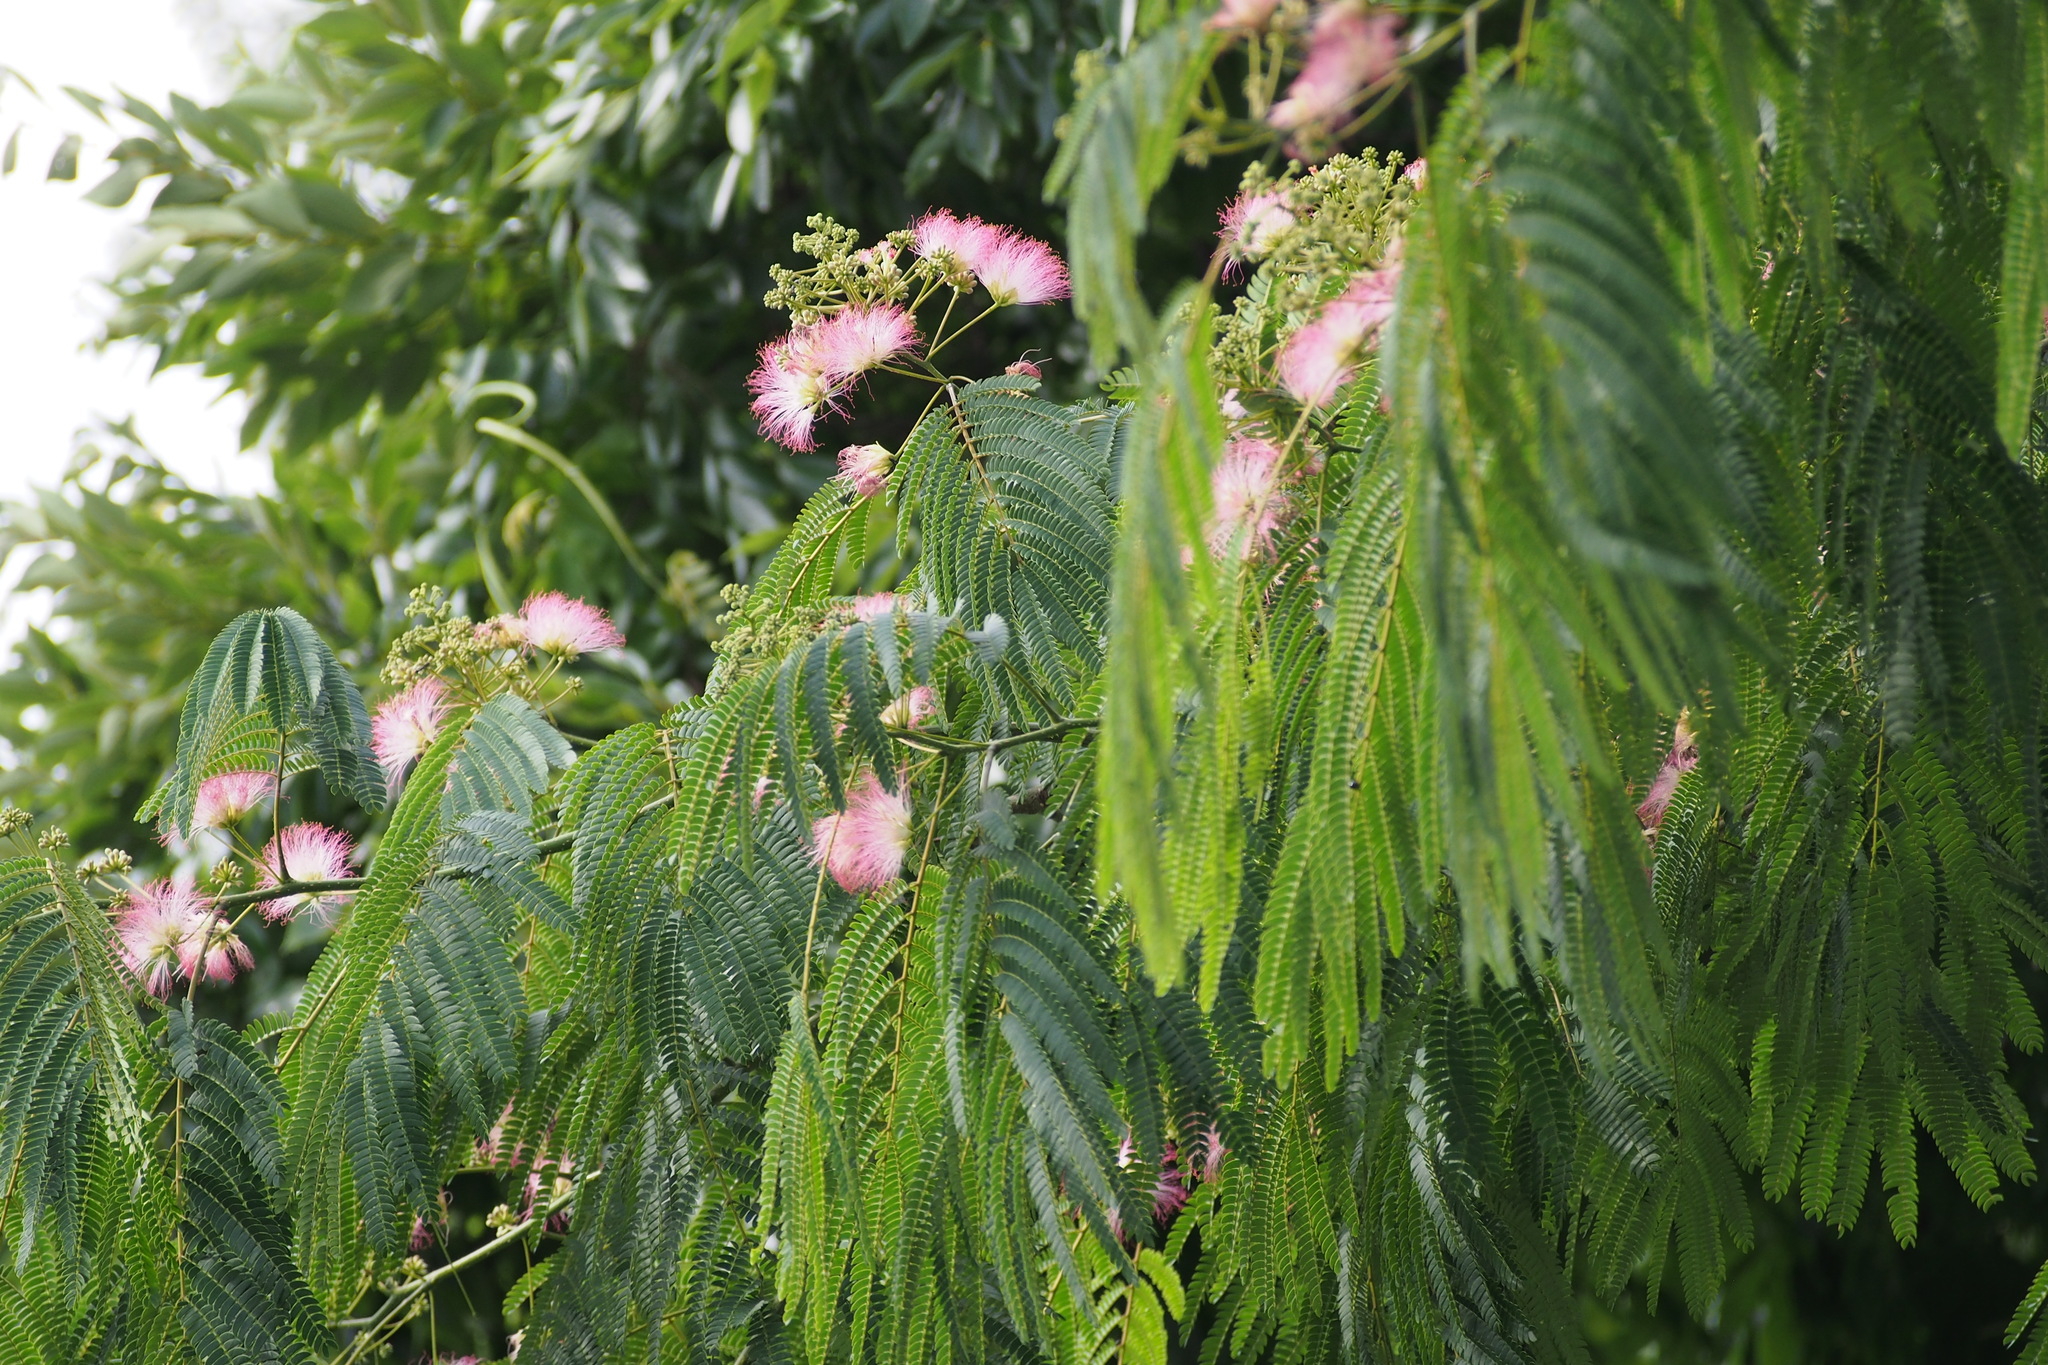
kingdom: Plantae
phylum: Tracheophyta
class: Magnoliopsida
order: Fabales
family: Fabaceae
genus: Albizia
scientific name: Albizia julibrissin
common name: Silktree
